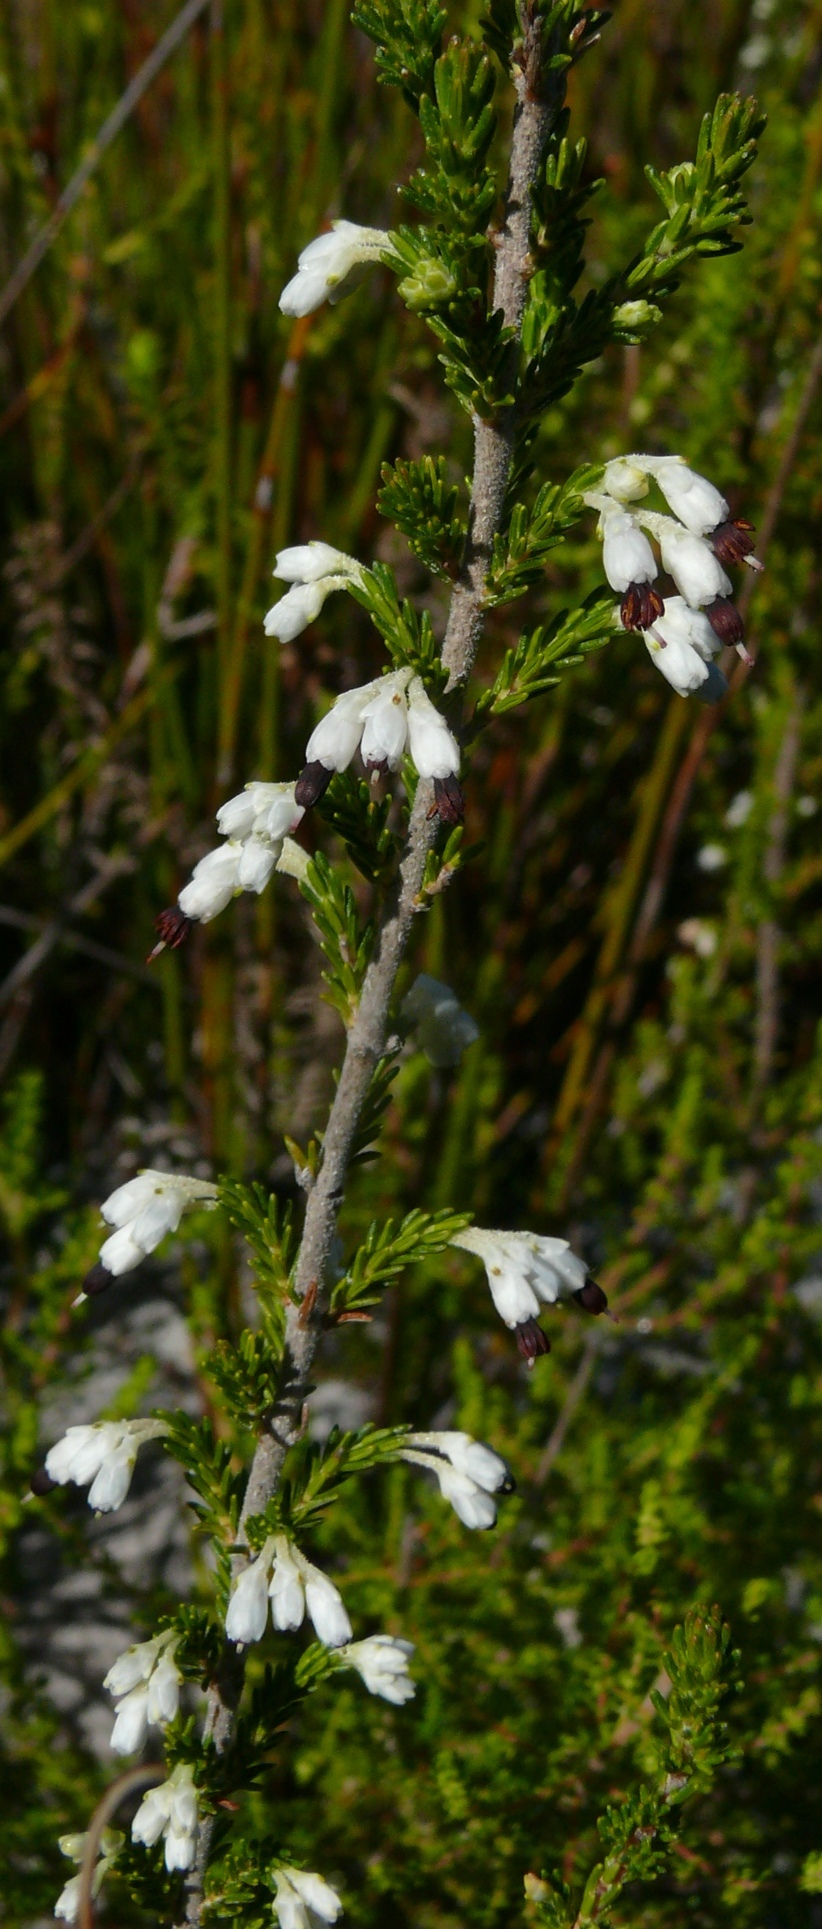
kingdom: Plantae
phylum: Tracheophyta
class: Magnoliopsida
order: Ericales
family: Ericaceae
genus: Erica
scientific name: Erica imbricata
